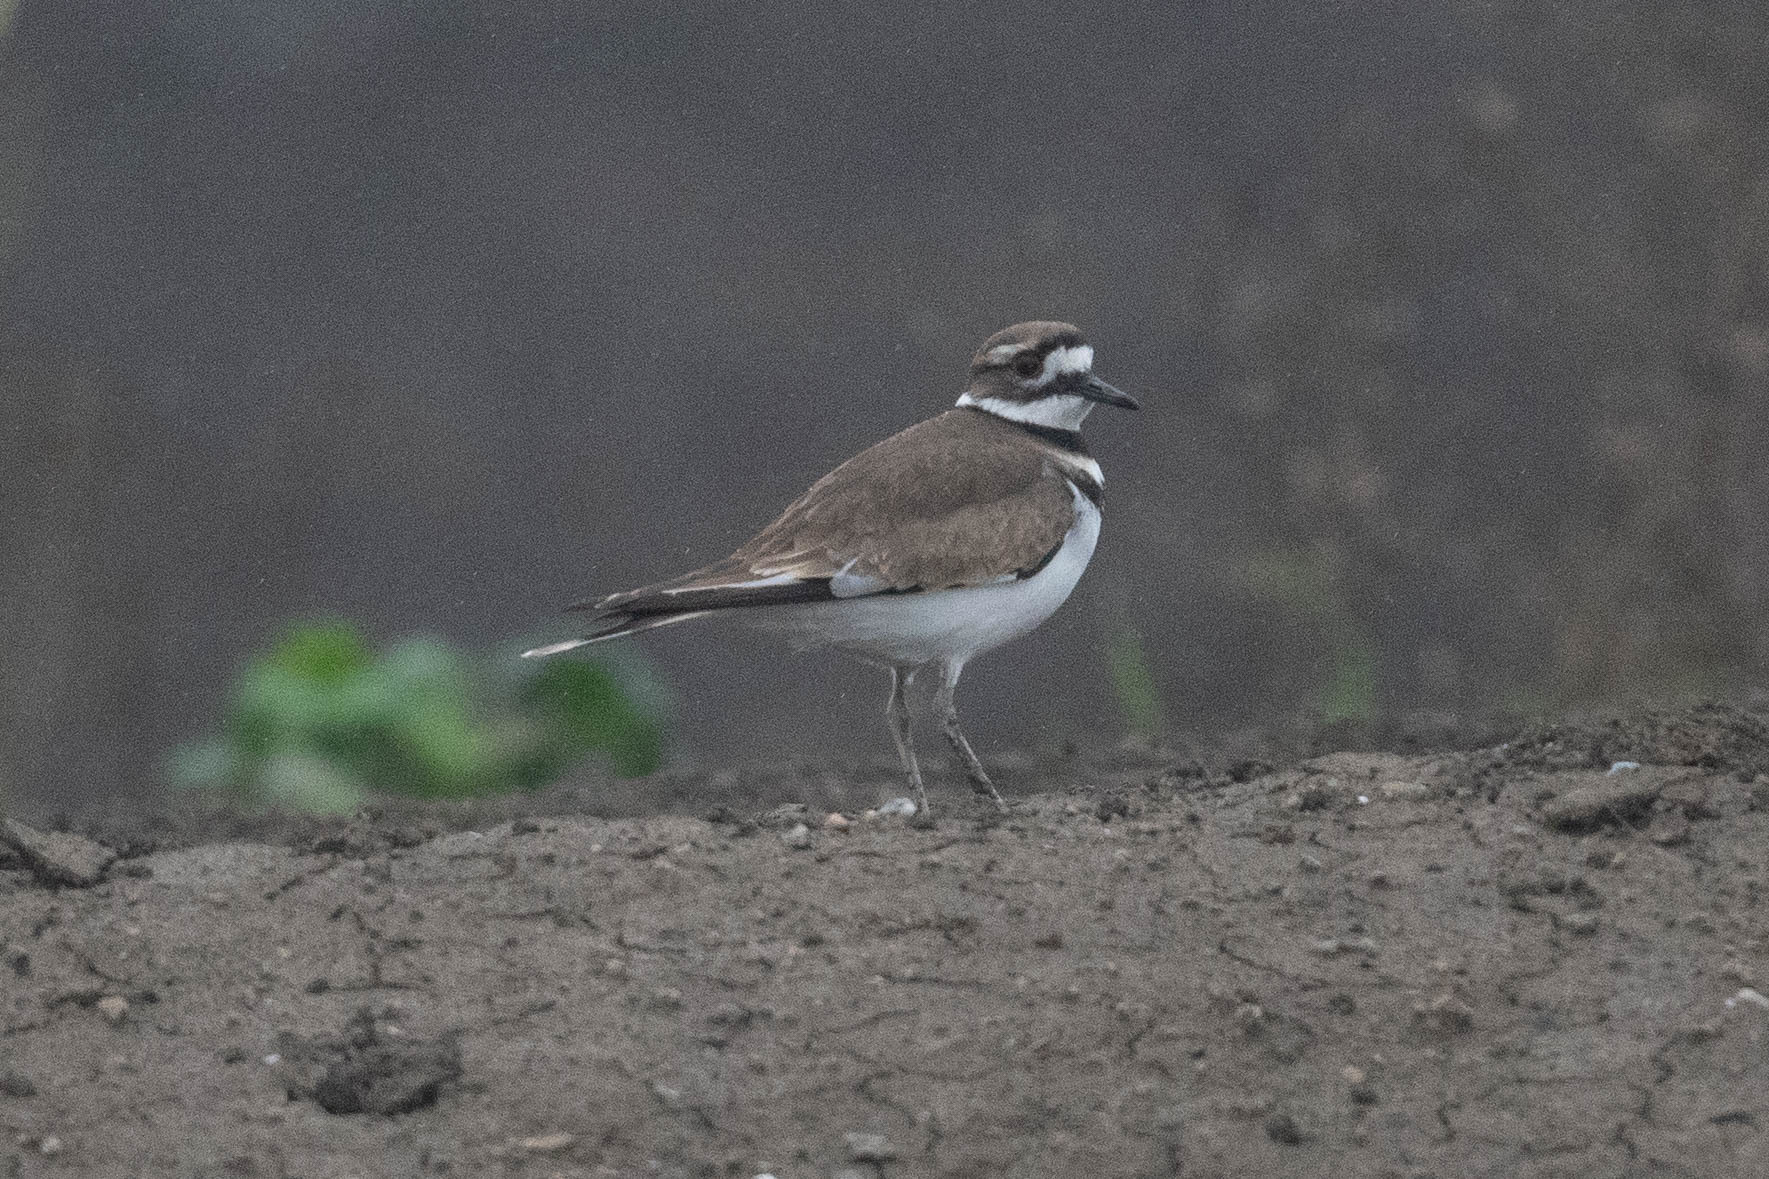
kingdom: Animalia
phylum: Chordata
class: Aves
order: Charadriiformes
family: Charadriidae
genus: Charadrius
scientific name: Charadrius vociferus
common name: Killdeer
